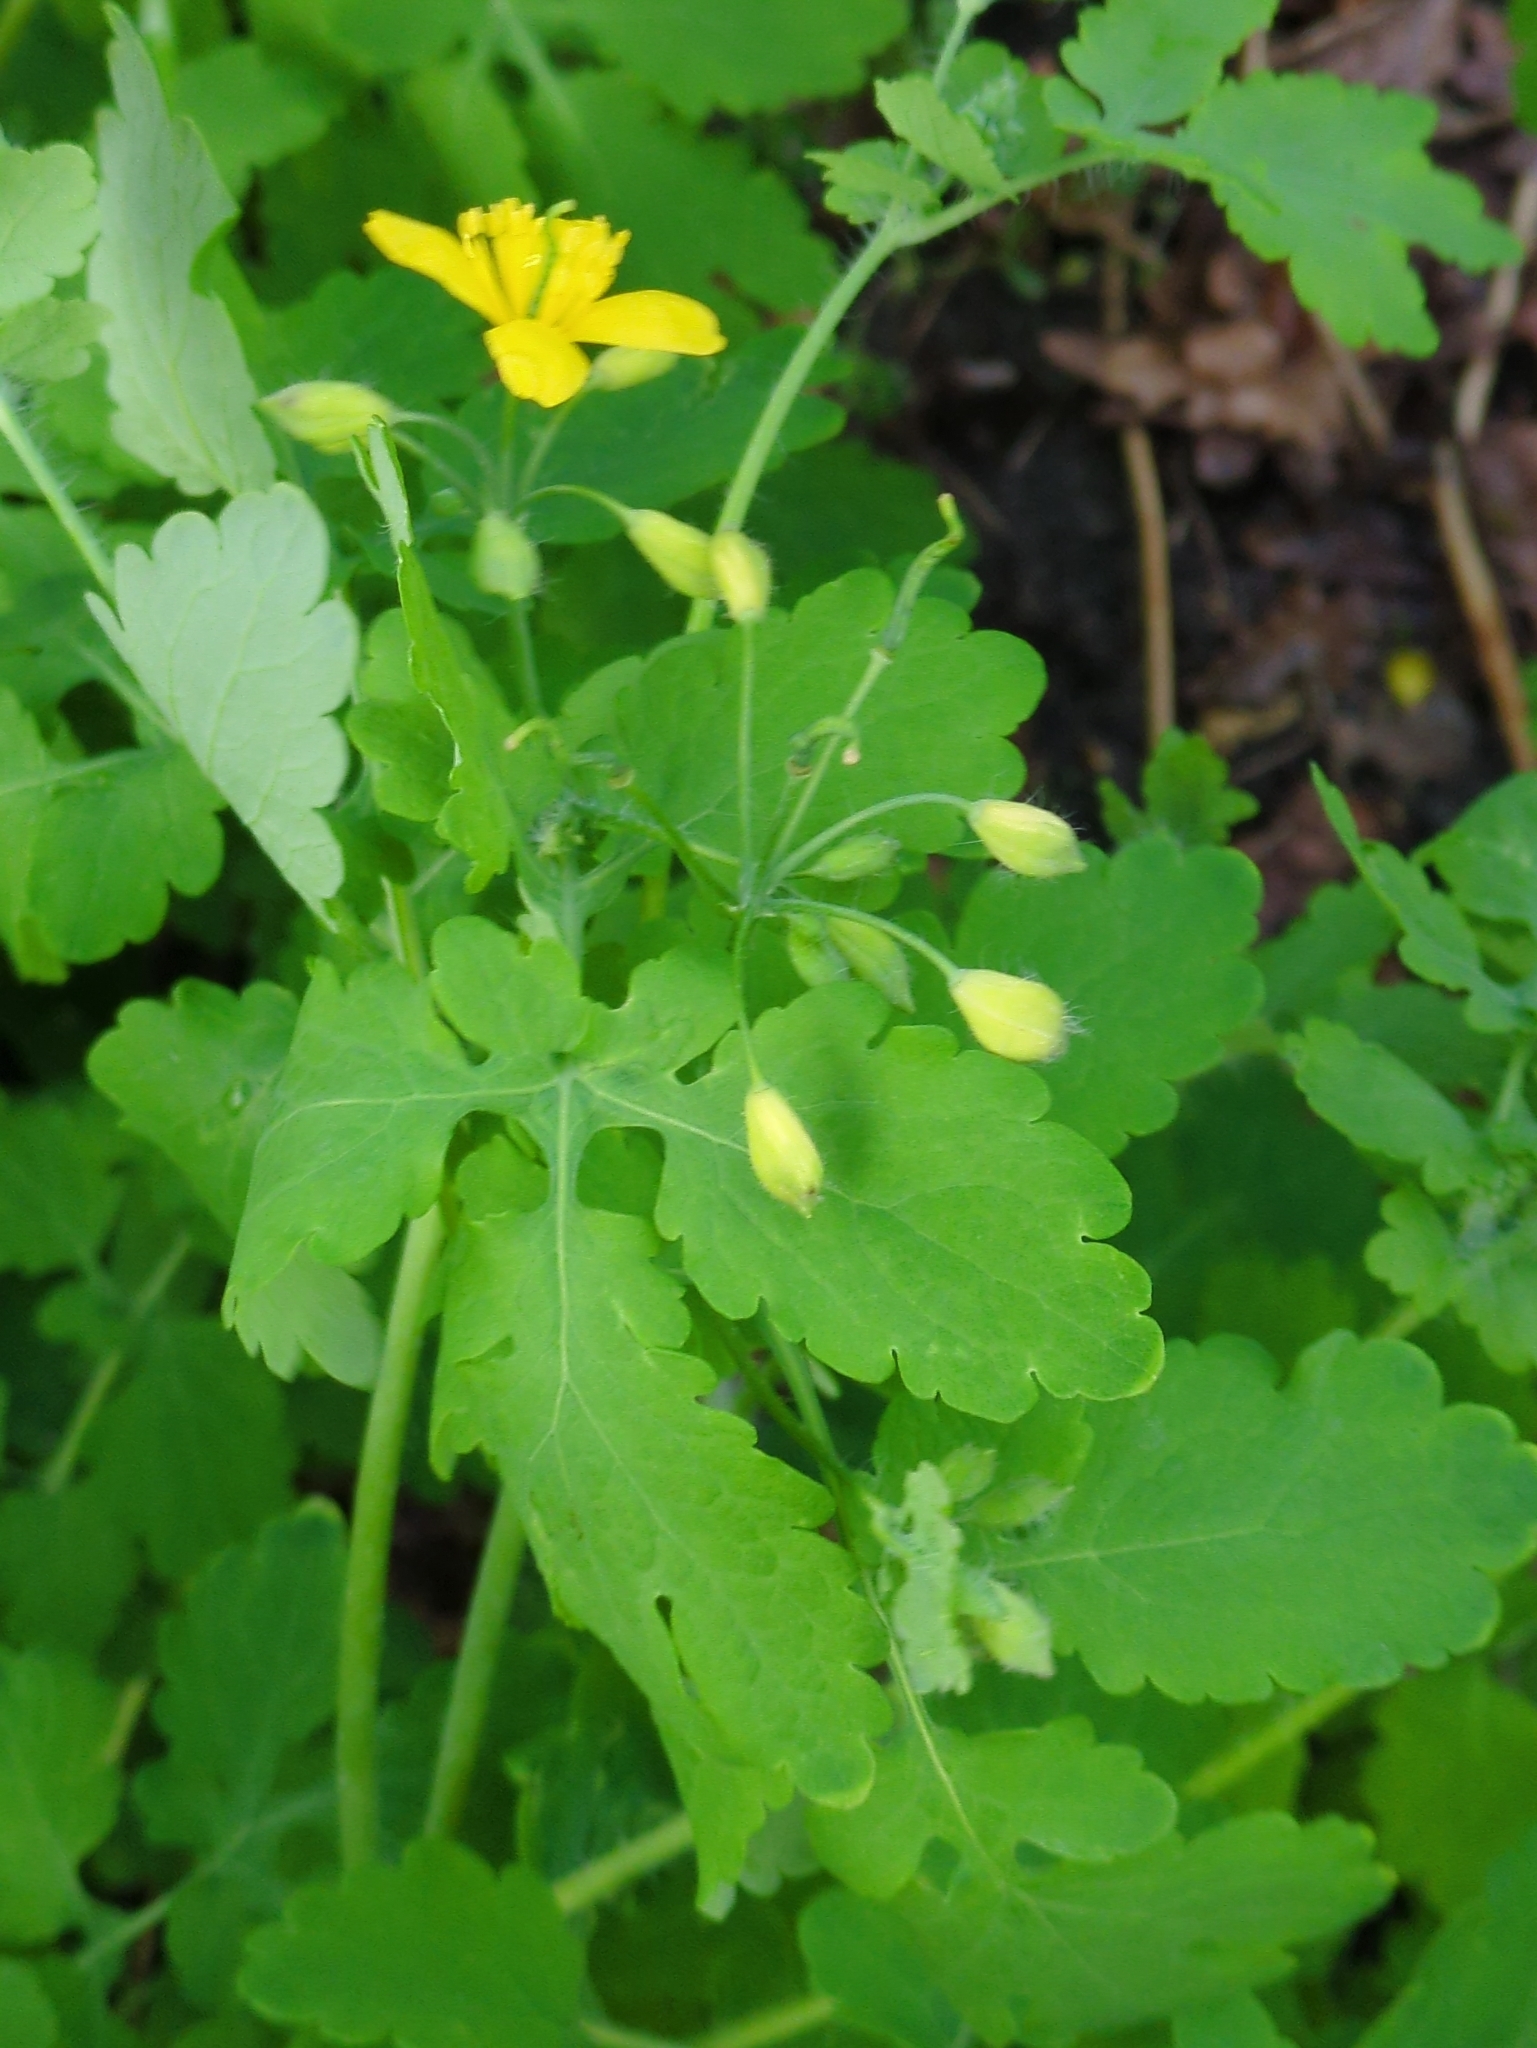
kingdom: Plantae
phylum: Tracheophyta
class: Magnoliopsida
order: Ranunculales
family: Papaveraceae
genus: Chelidonium
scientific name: Chelidonium majus
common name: Greater celandine
